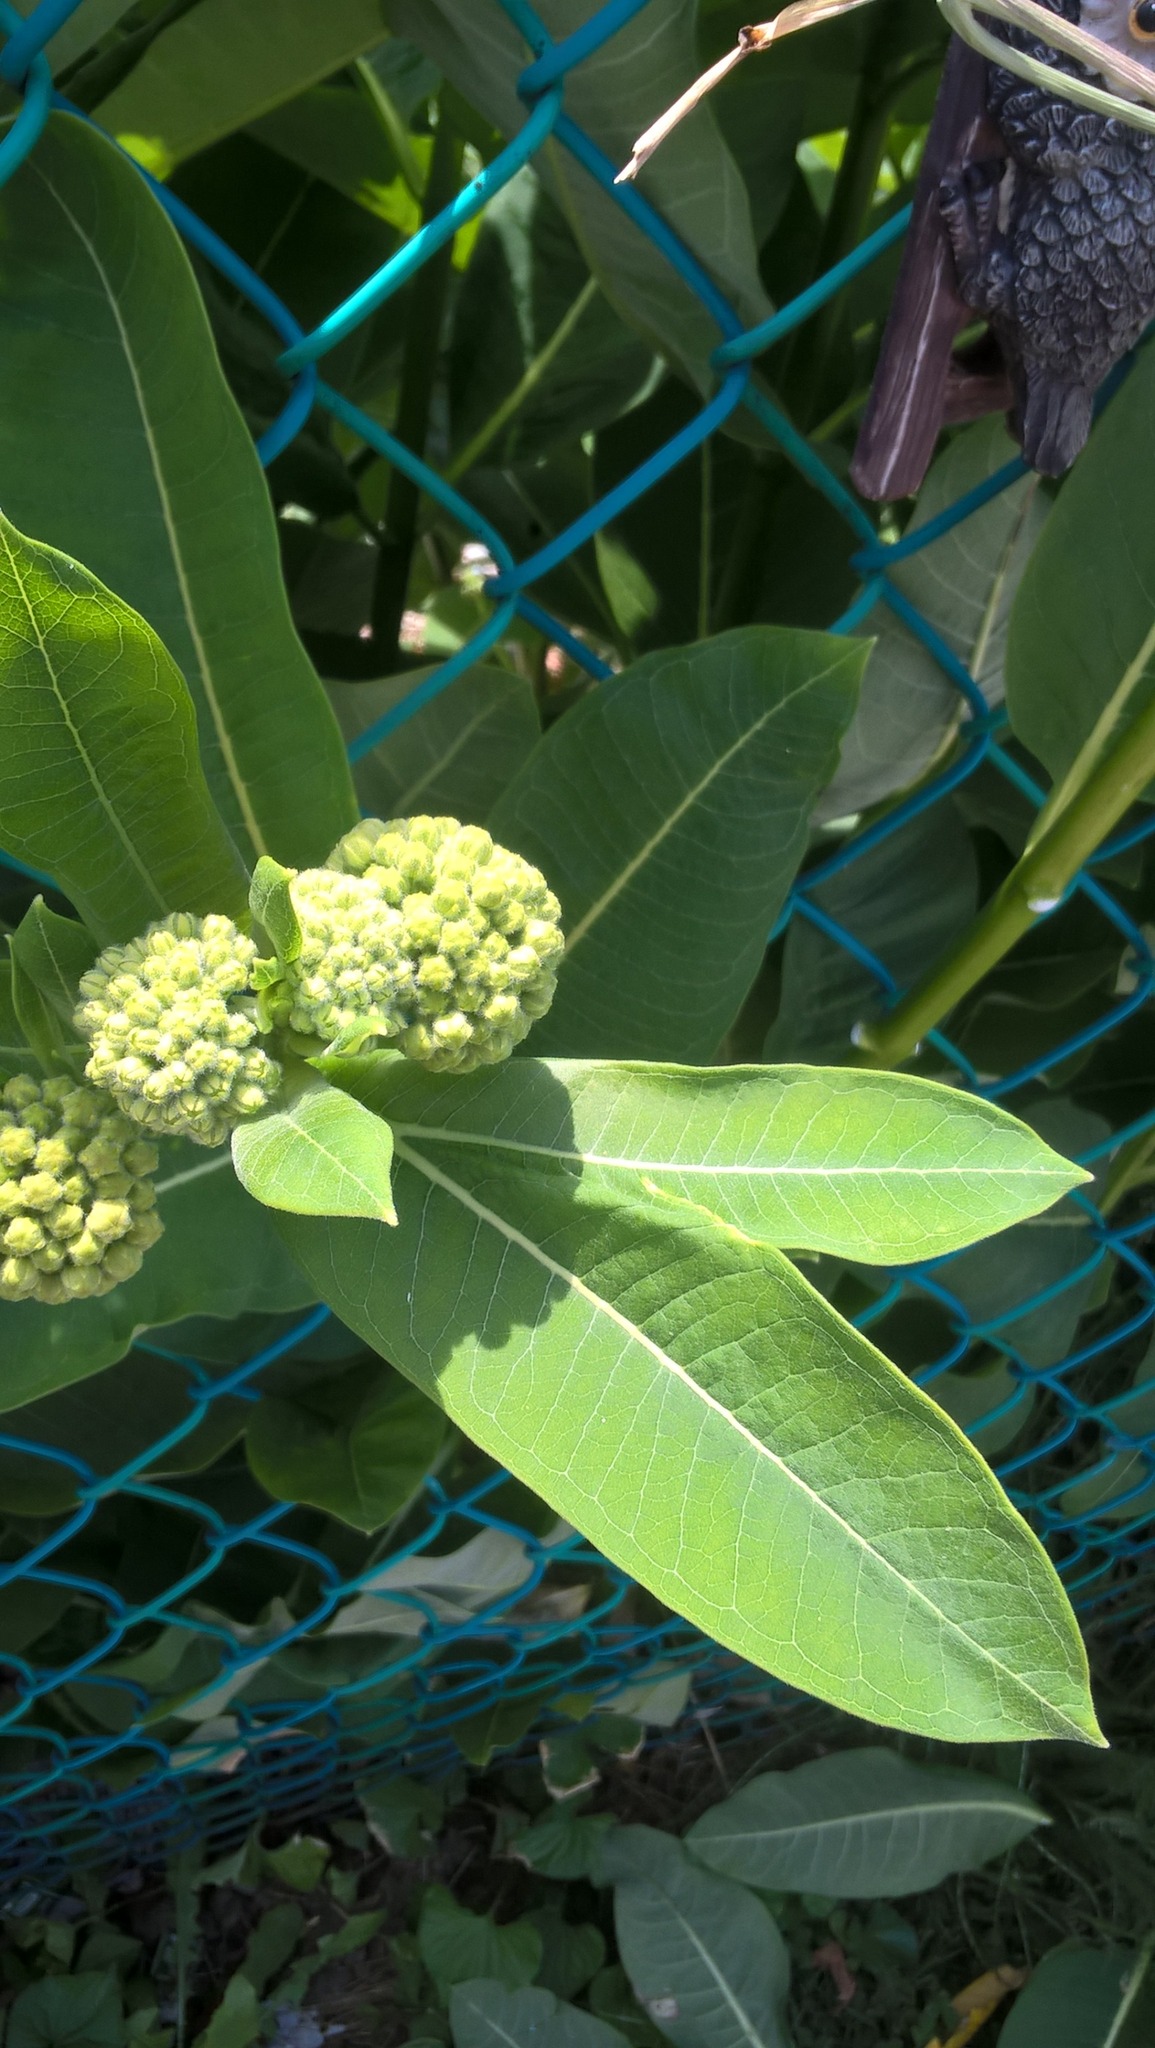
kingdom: Plantae
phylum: Tracheophyta
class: Magnoliopsida
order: Gentianales
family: Apocynaceae
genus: Asclepias
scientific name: Asclepias syriaca
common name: Common milkweed
